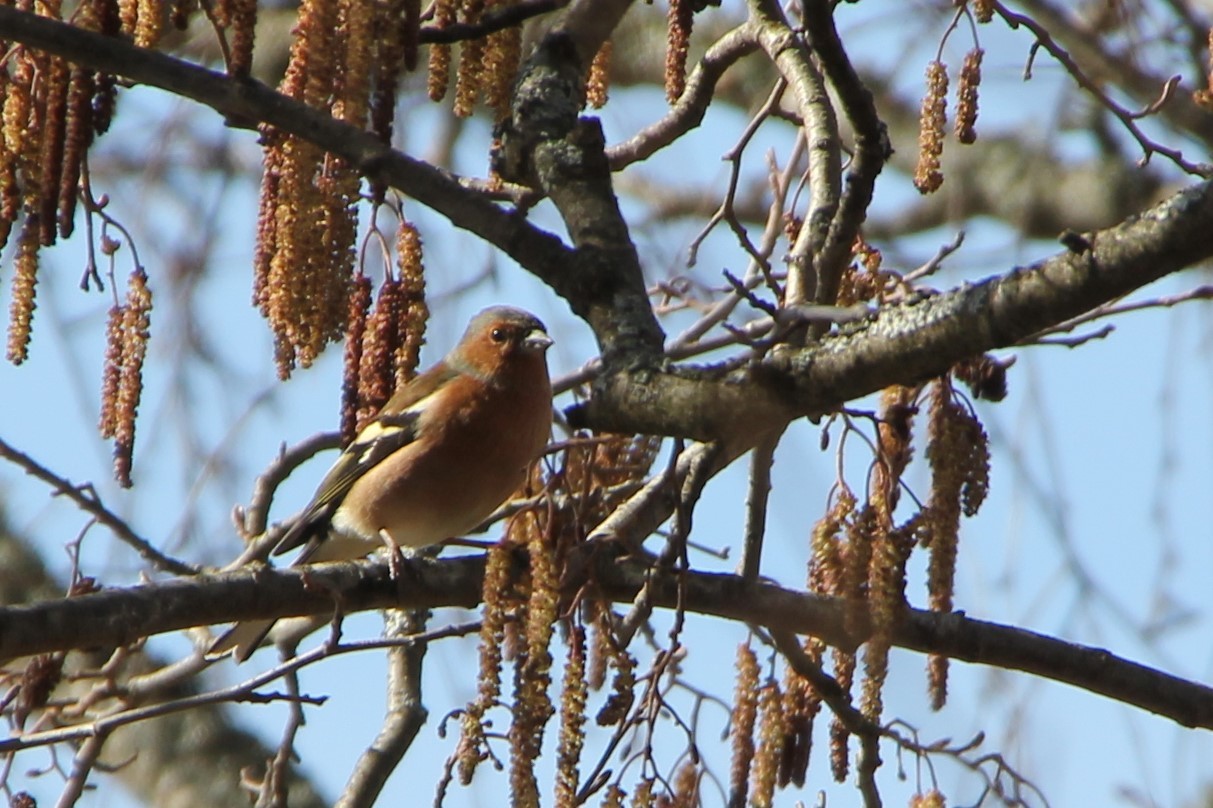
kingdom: Animalia
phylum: Chordata
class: Aves
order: Passeriformes
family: Fringillidae
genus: Fringilla
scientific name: Fringilla coelebs
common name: Common chaffinch
